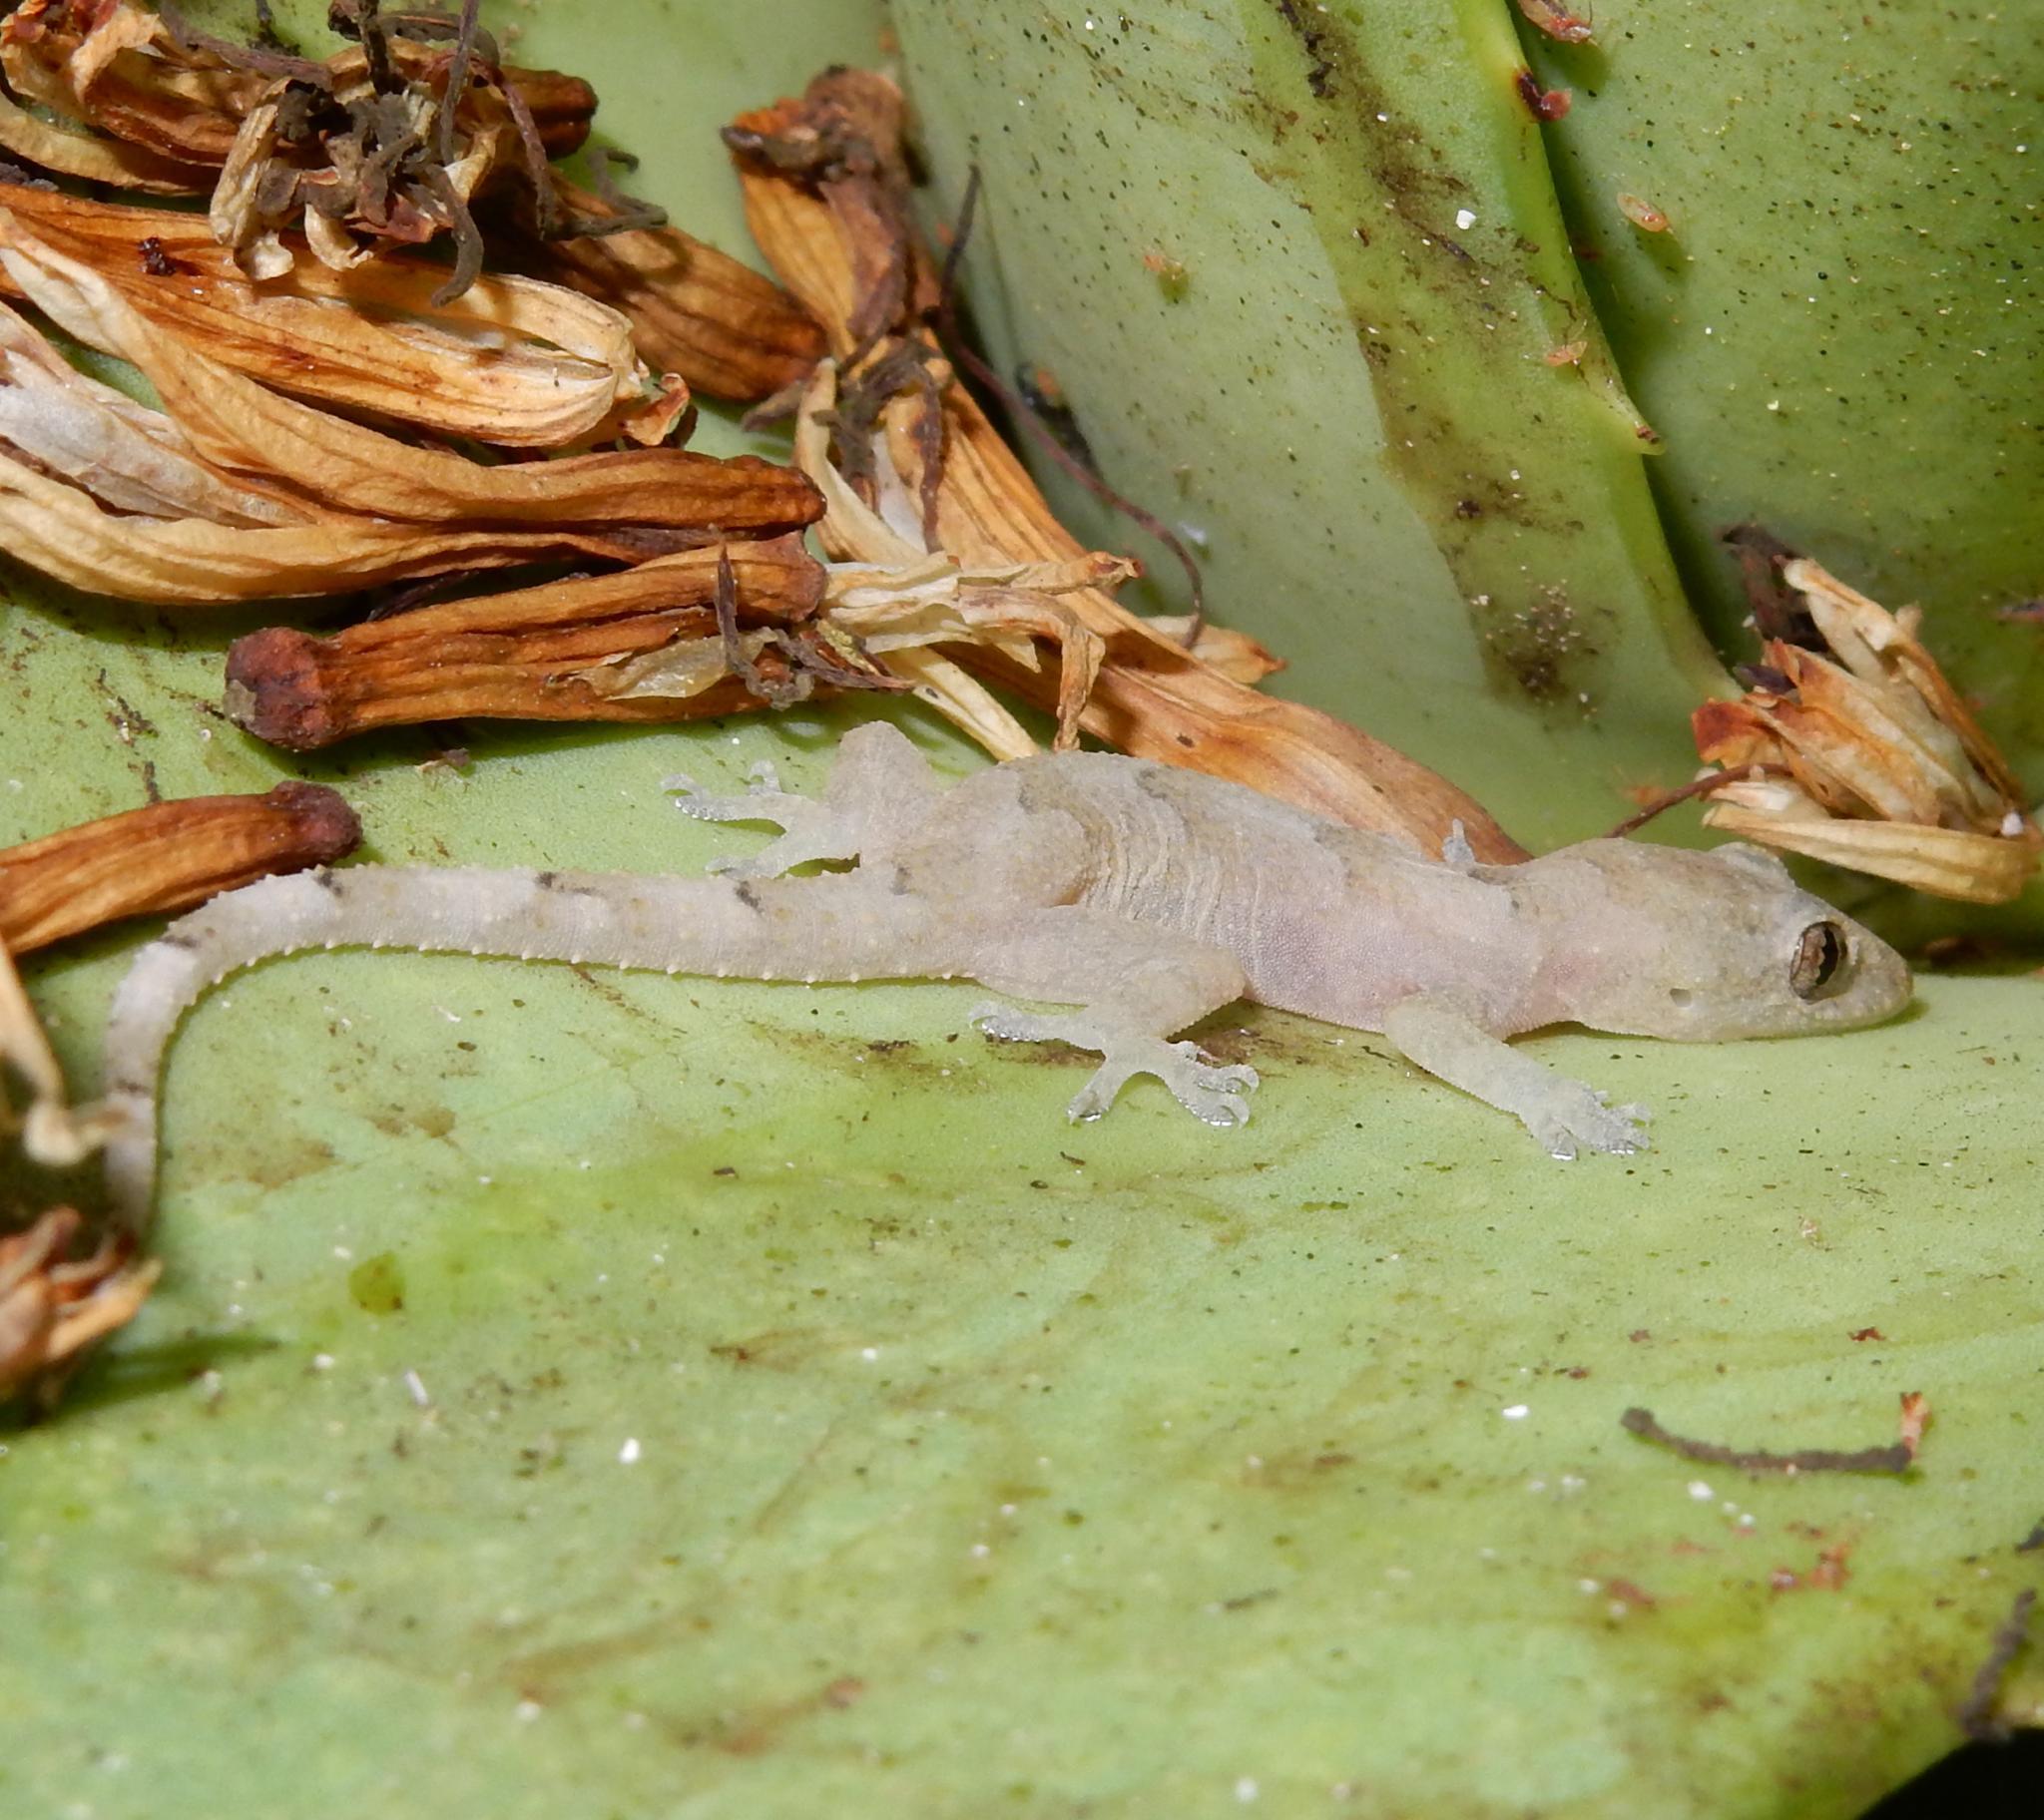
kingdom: Animalia
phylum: Chordata
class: Squamata
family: Gekkonidae
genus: Hemidactylus
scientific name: Hemidactylus mabouia
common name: House gecko
